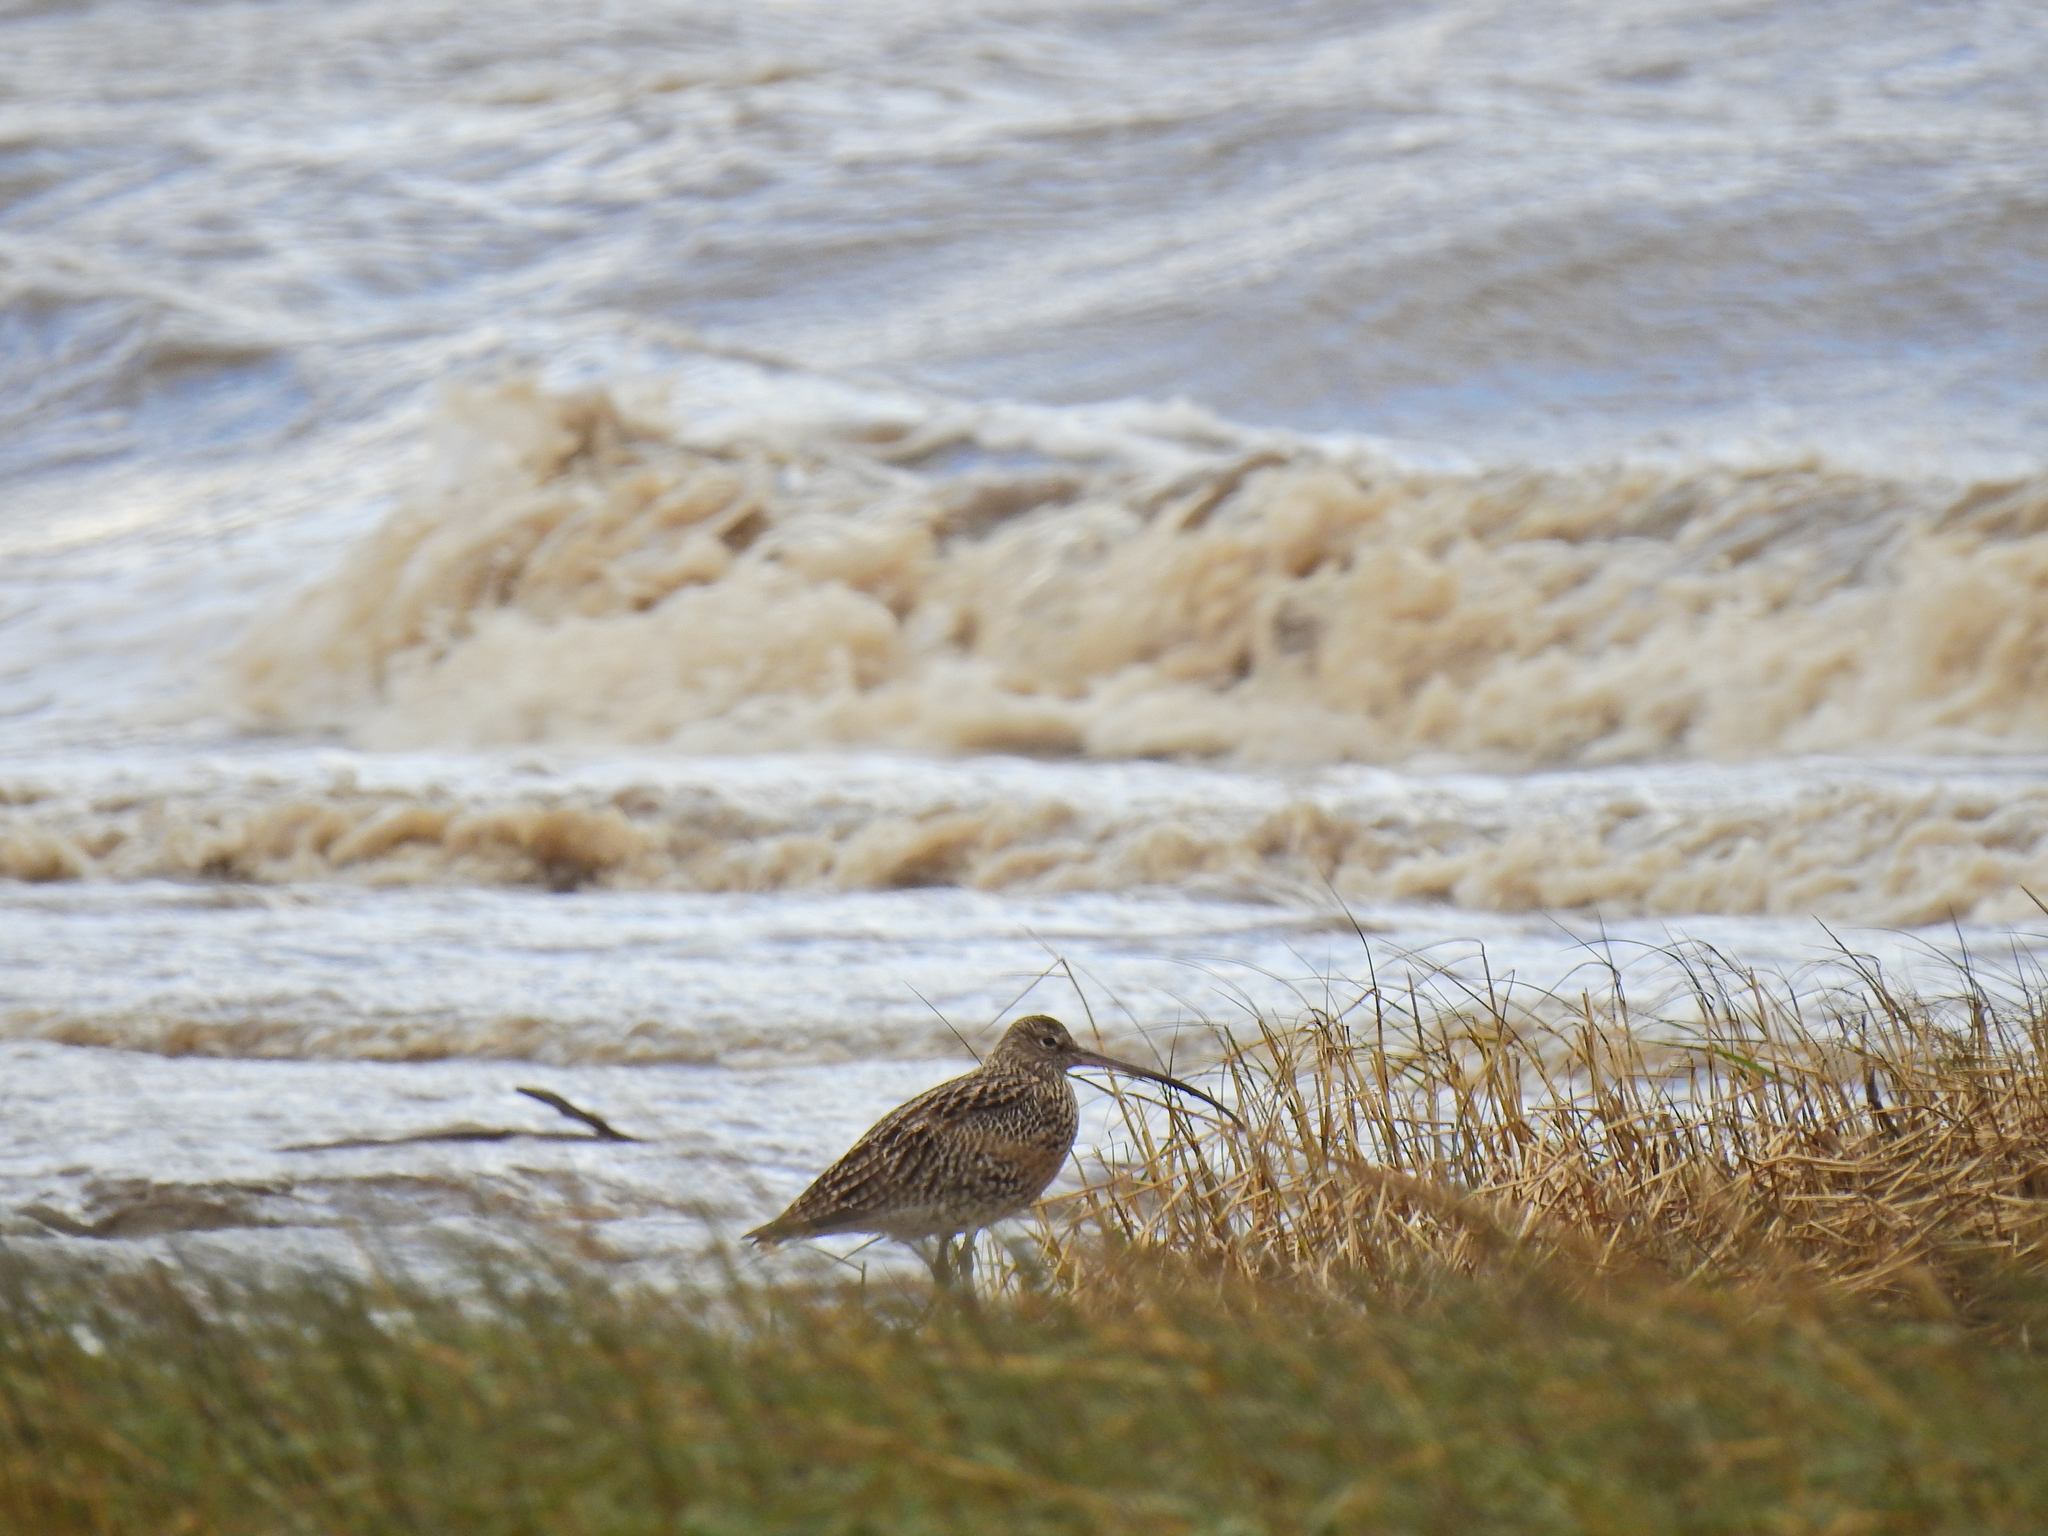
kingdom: Animalia
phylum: Chordata
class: Aves
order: Charadriiformes
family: Scolopacidae
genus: Numenius
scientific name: Numenius arquata
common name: Eurasian curlew
